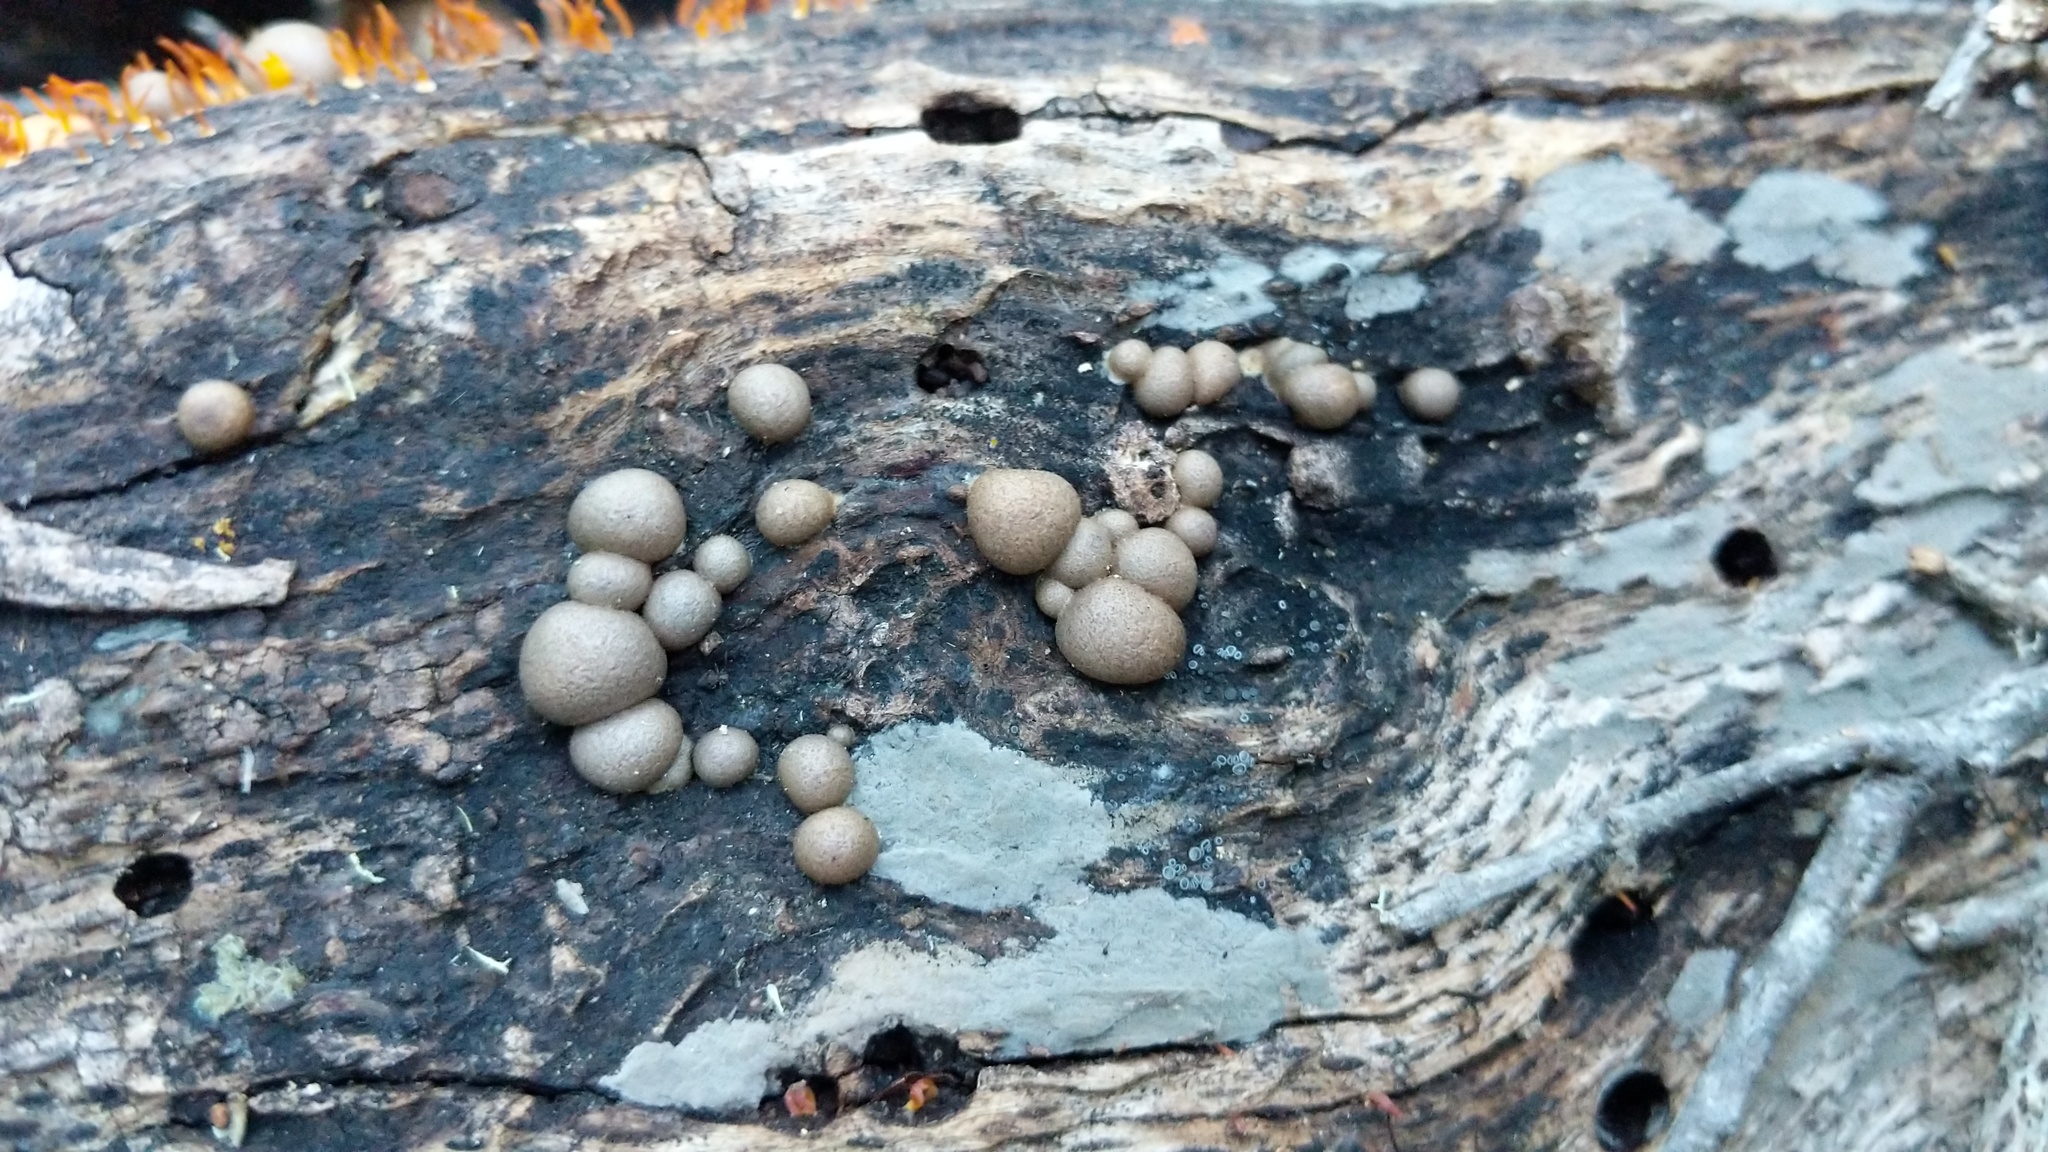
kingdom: Protozoa
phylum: Mycetozoa
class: Myxomycetes
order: Cribrariales
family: Tubiferaceae
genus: Lycogala
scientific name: Lycogala epidendrum
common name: Wolf's milk
